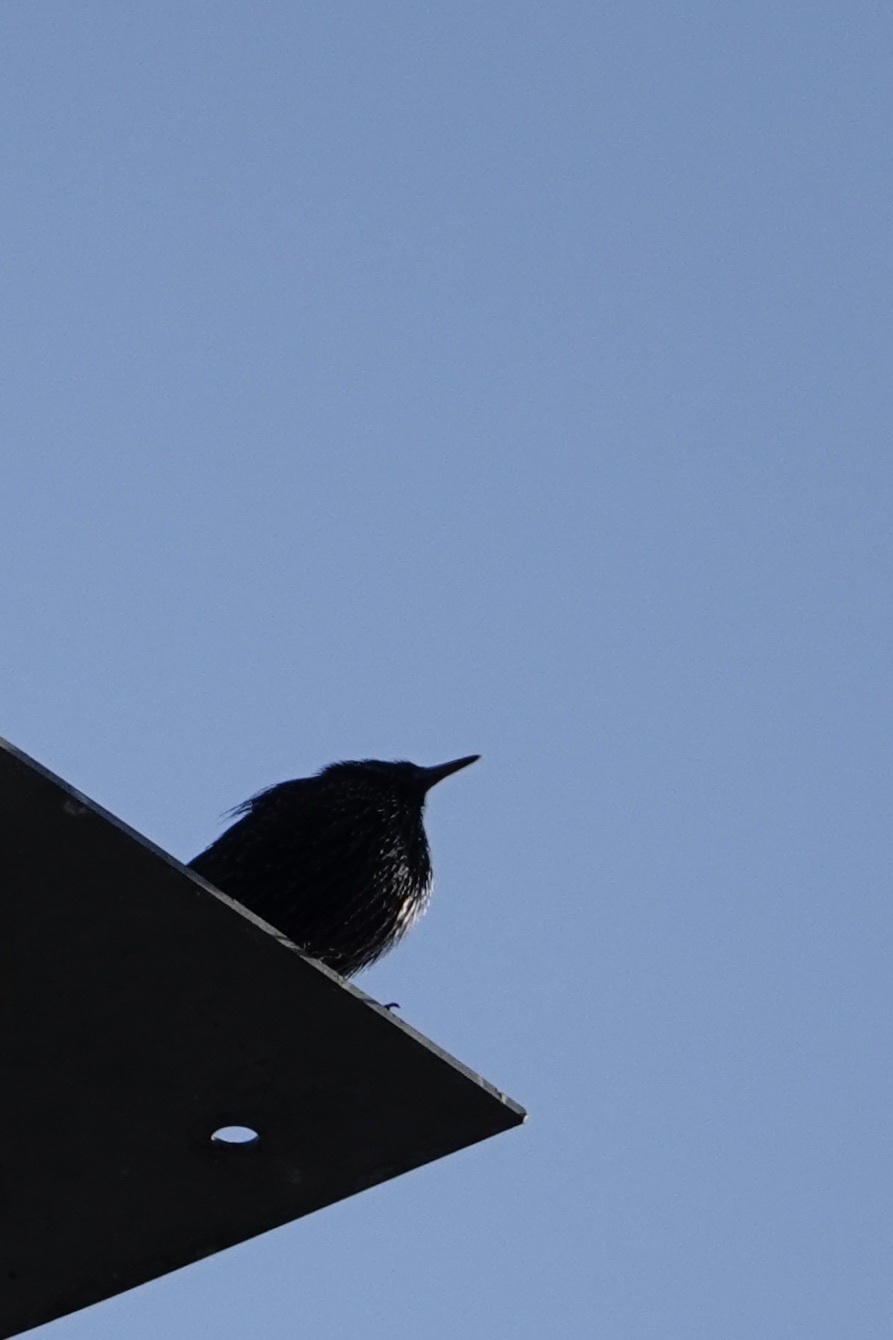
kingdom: Animalia
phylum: Chordata
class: Aves
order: Passeriformes
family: Sturnidae
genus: Sturnus
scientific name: Sturnus vulgaris
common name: Common starling
